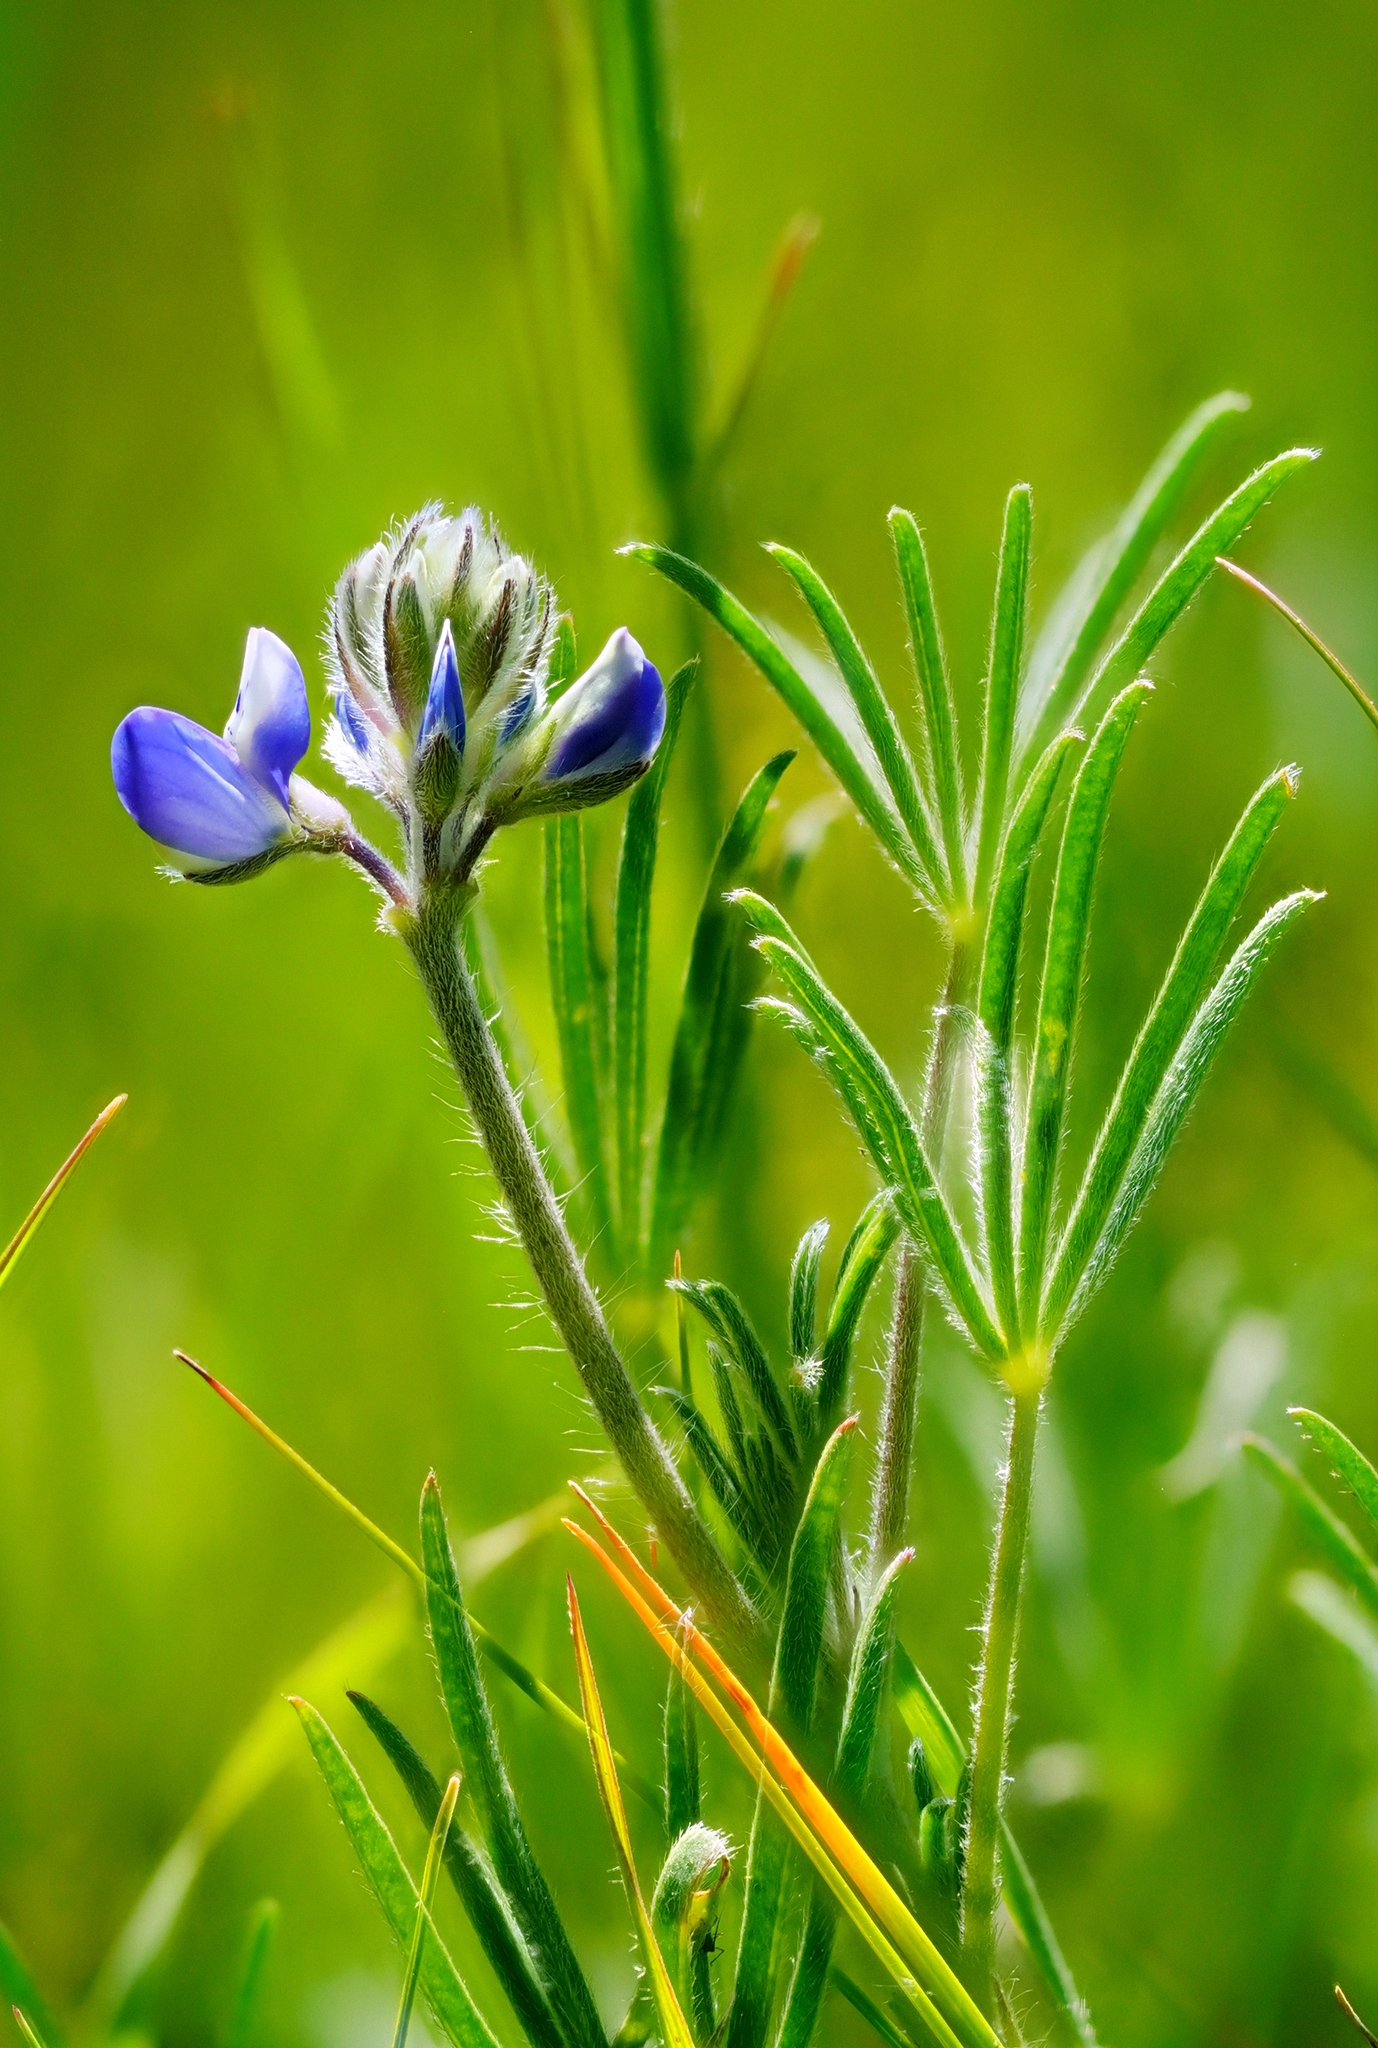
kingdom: Plantae
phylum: Tracheophyta
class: Magnoliopsida
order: Fabales
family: Fabaceae
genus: Lupinus
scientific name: Lupinus bicolor
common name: Miniature lupine
